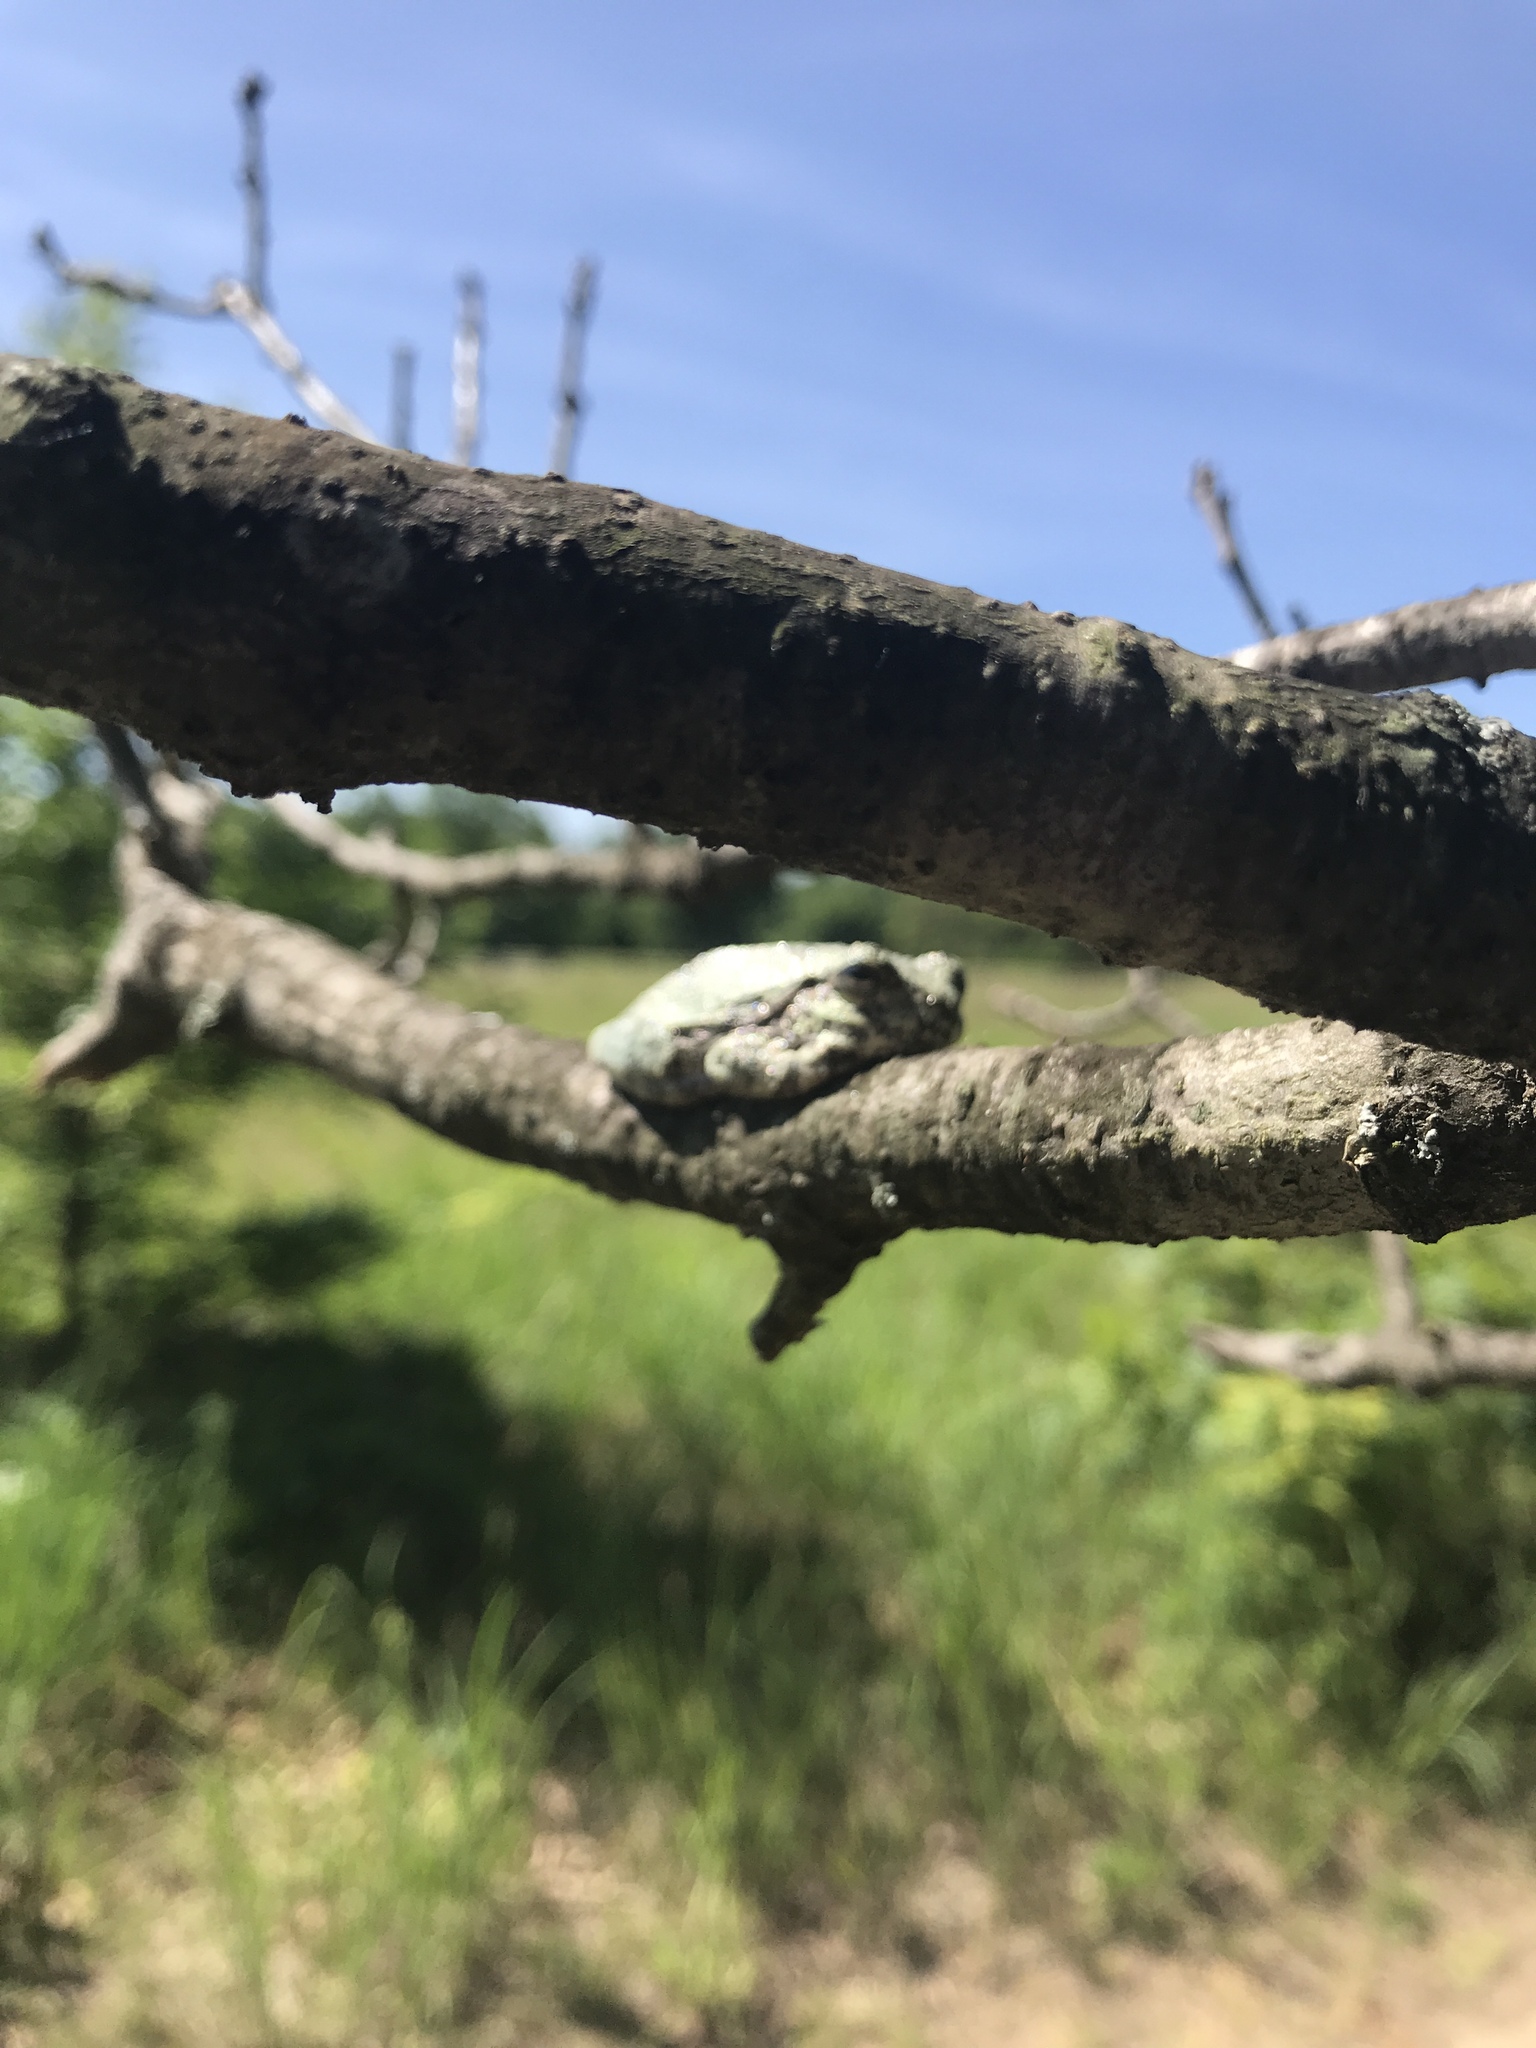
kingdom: Animalia
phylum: Chordata
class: Amphibia
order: Anura
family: Hylidae
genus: Hyla
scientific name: Hyla
